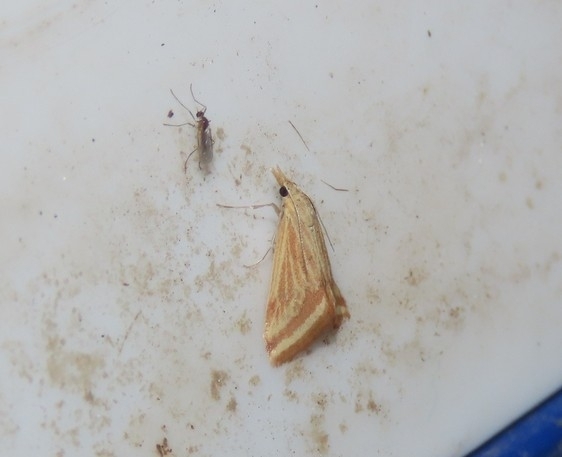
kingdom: Animalia
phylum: Arthropoda
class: Insecta
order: Lepidoptera
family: Crambidae
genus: Microtheoris
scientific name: Microtheoris ophionalis
